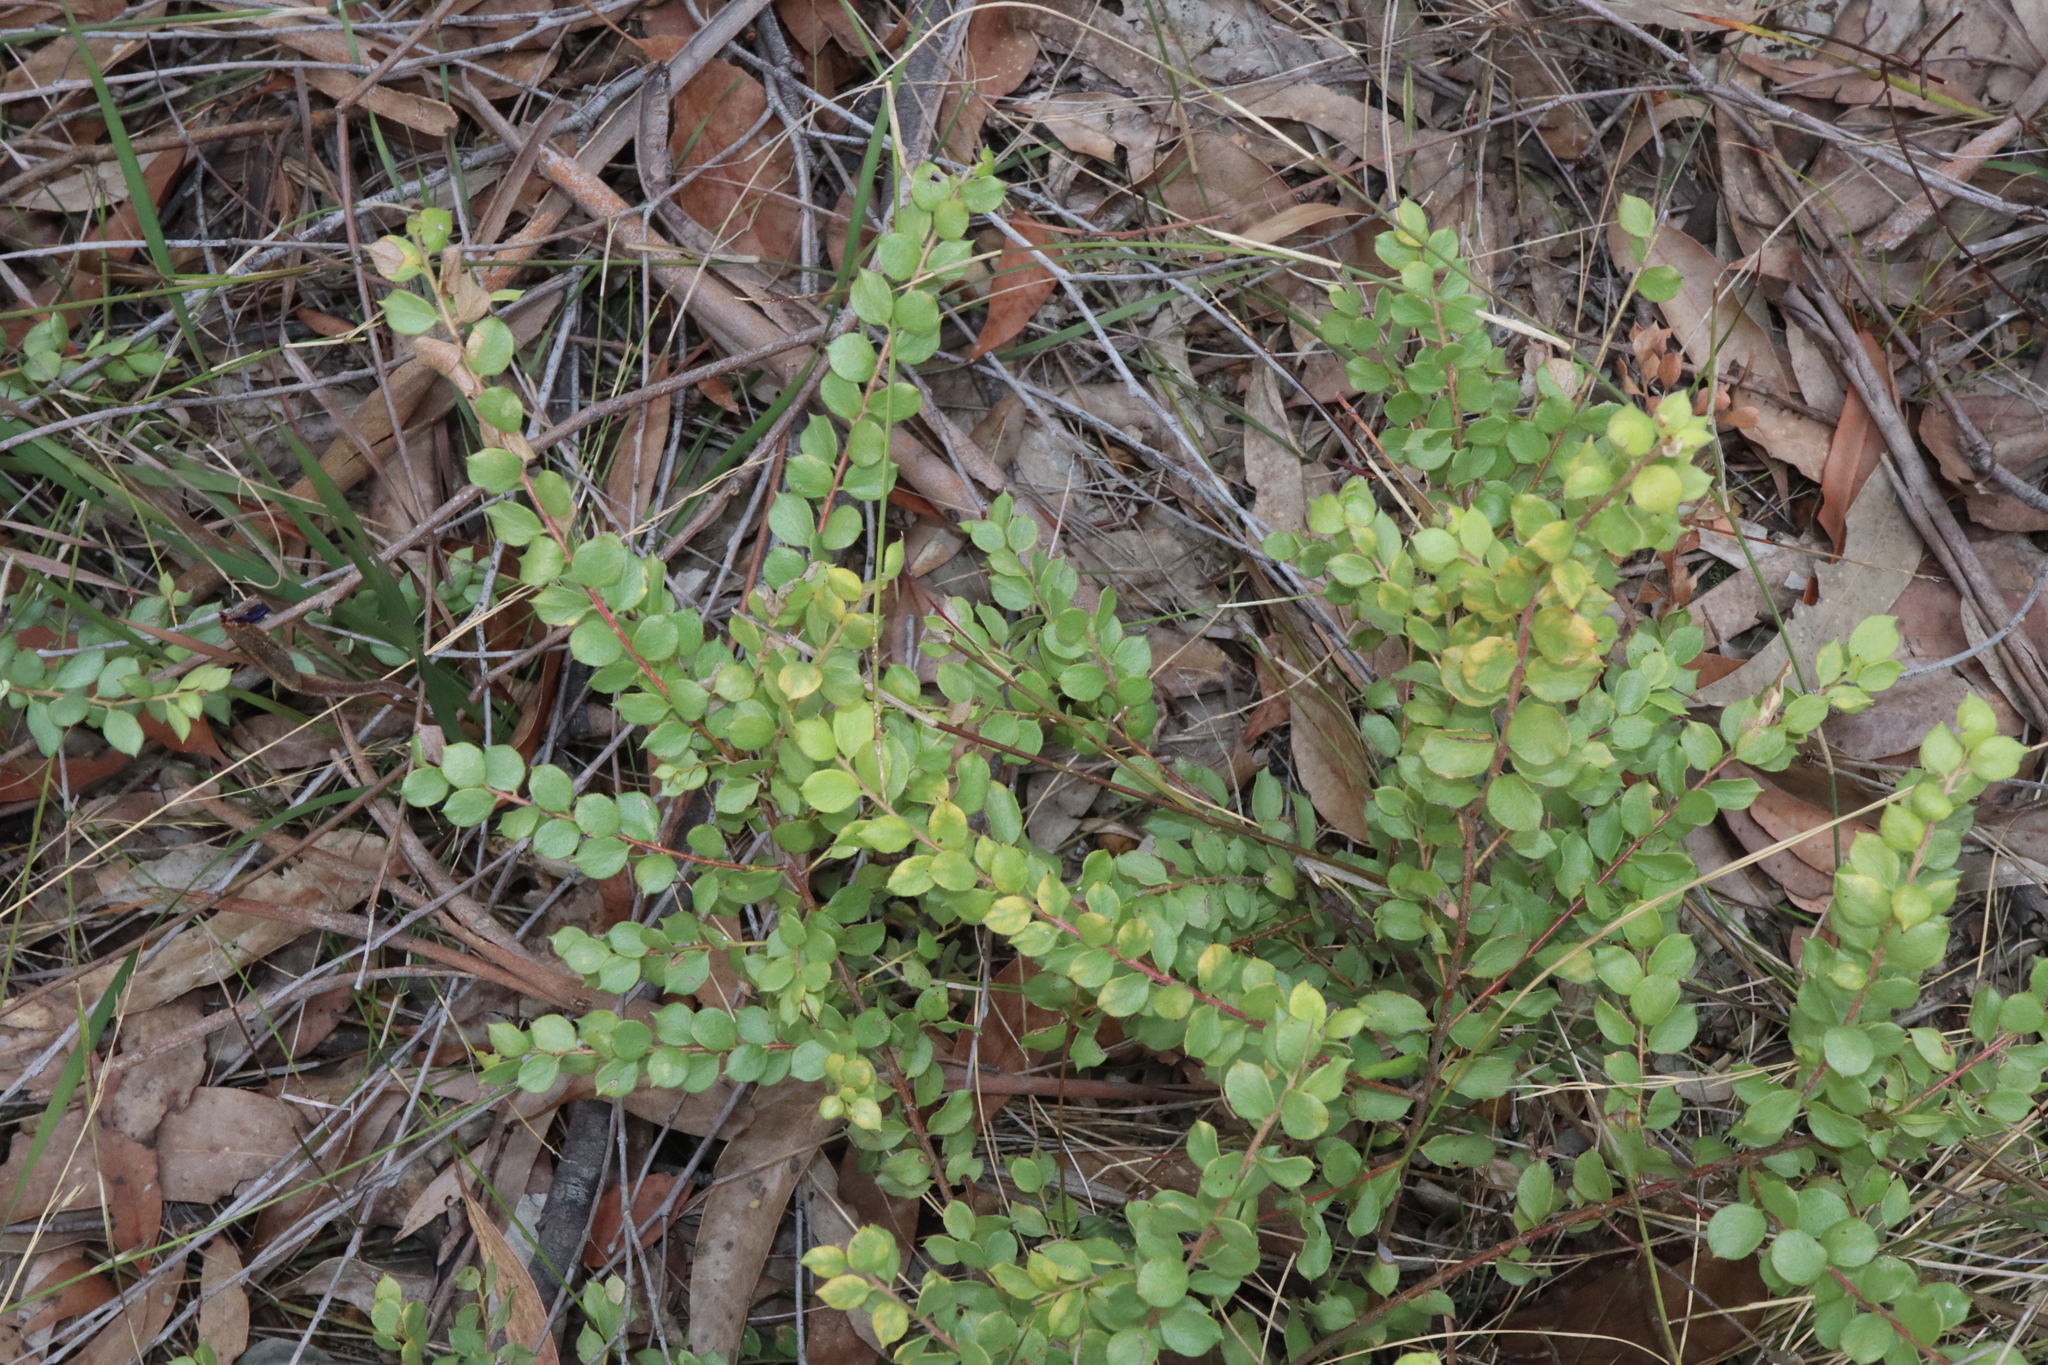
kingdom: Plantae
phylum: Tracheophyta
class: Magnoliopsida
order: Proteales
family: Proteaceae
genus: Grevillea
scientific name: Grevillea mucronulata
